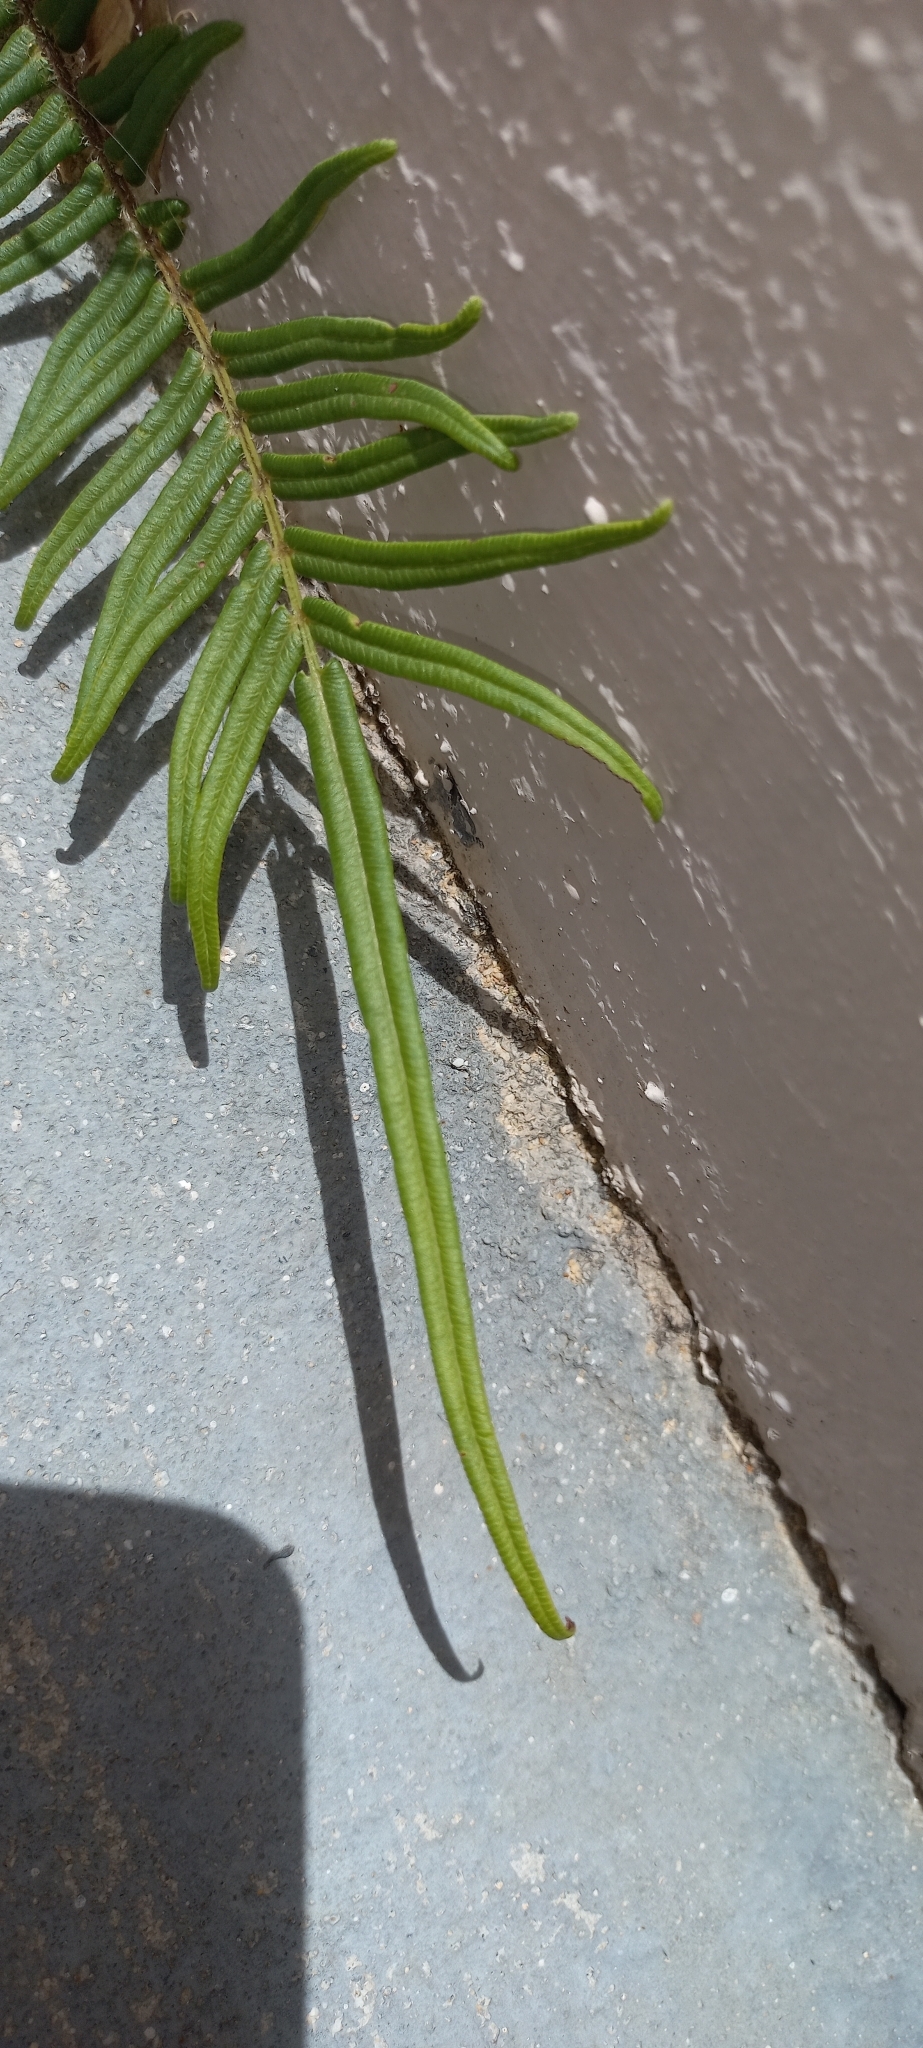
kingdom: Plantae
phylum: Tracheophyta
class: Polypodiopsida
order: Polypodiales
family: Pteridaceae
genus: Pteris
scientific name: Pteris vittata
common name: Ladder brake
